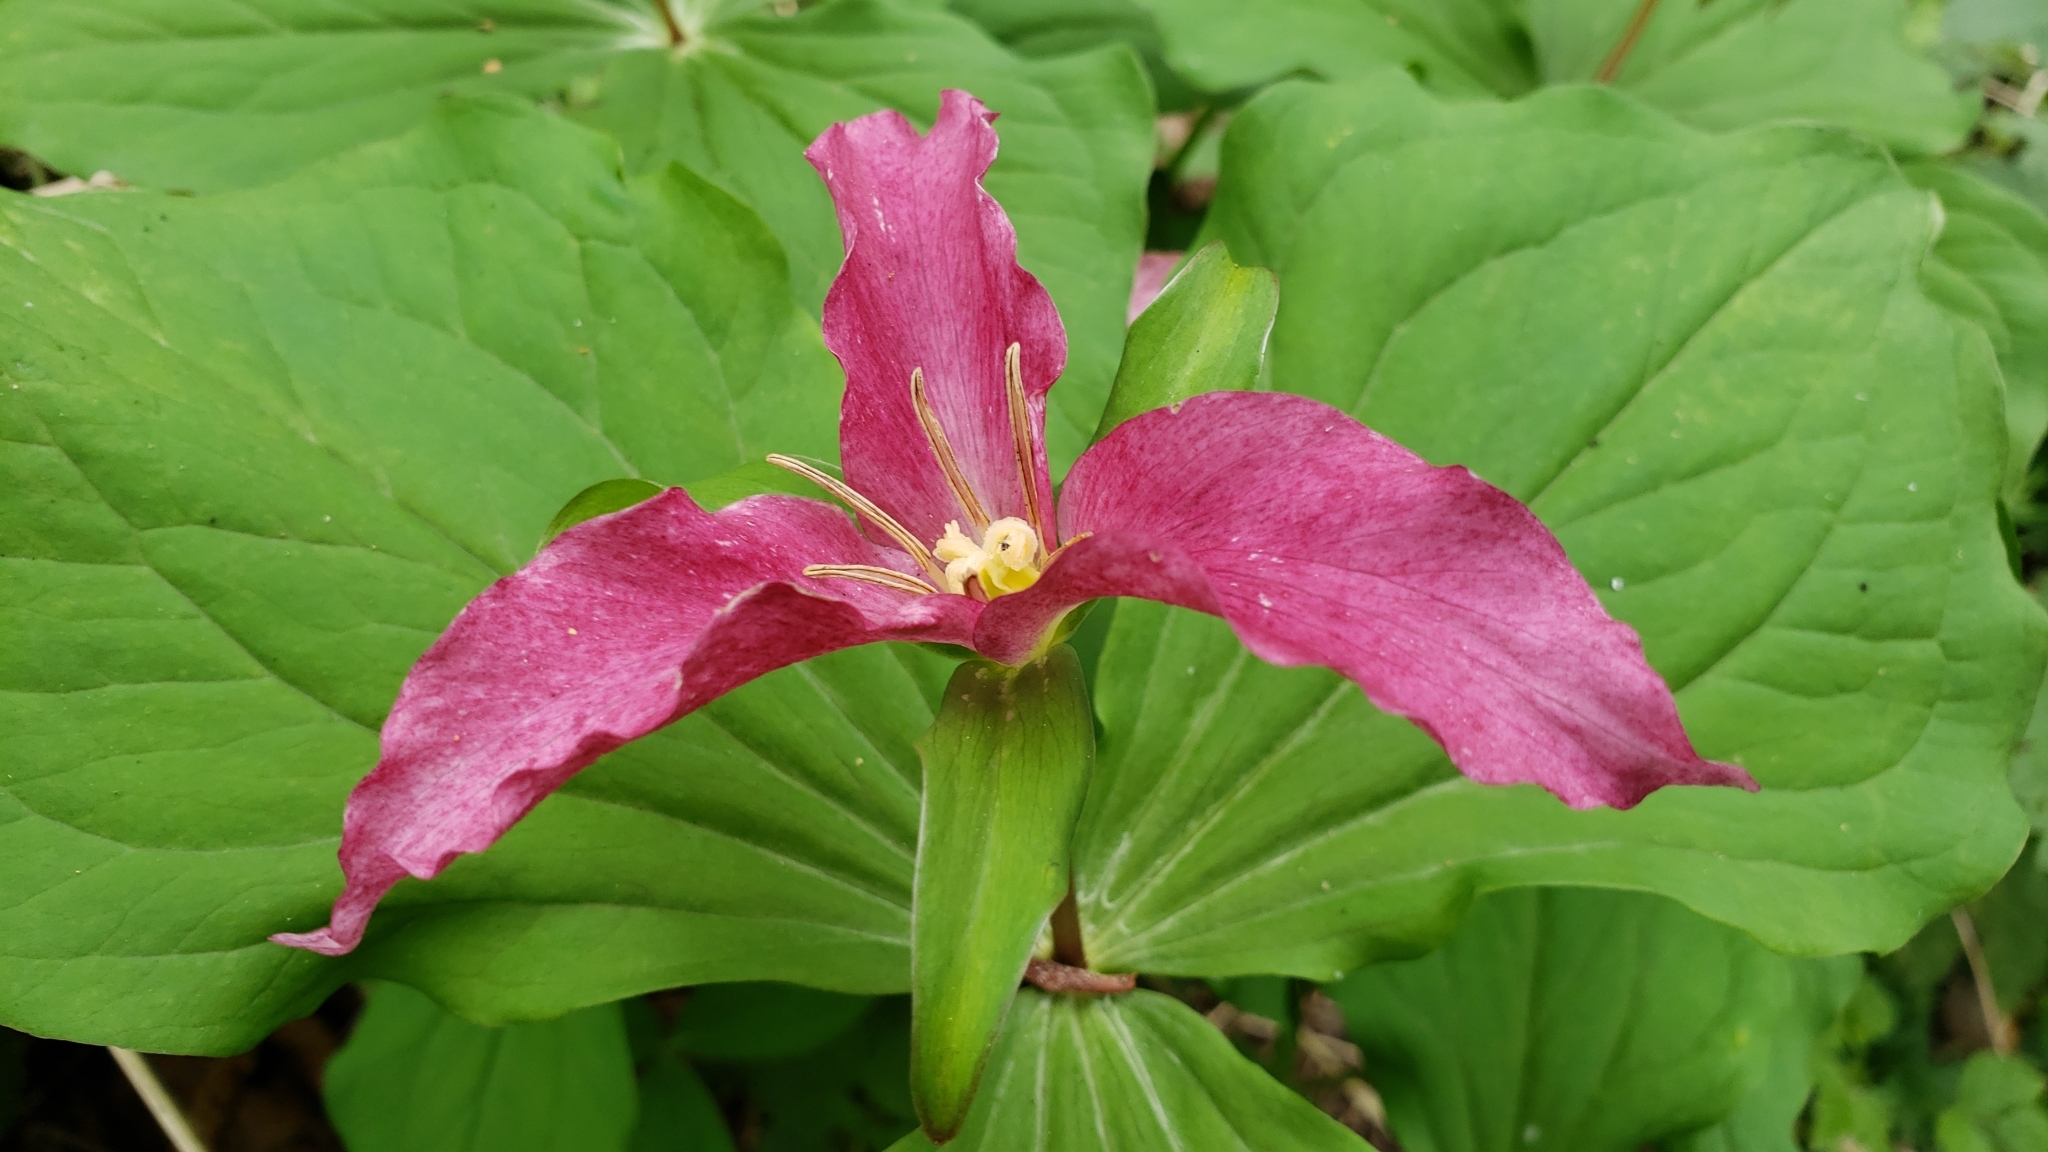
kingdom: Plantae
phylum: Tracheophyta
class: Liliopsida
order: Liliales
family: Melanthiaceae
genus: Trillium
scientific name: Trillium ovatum
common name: Pacific trillium
